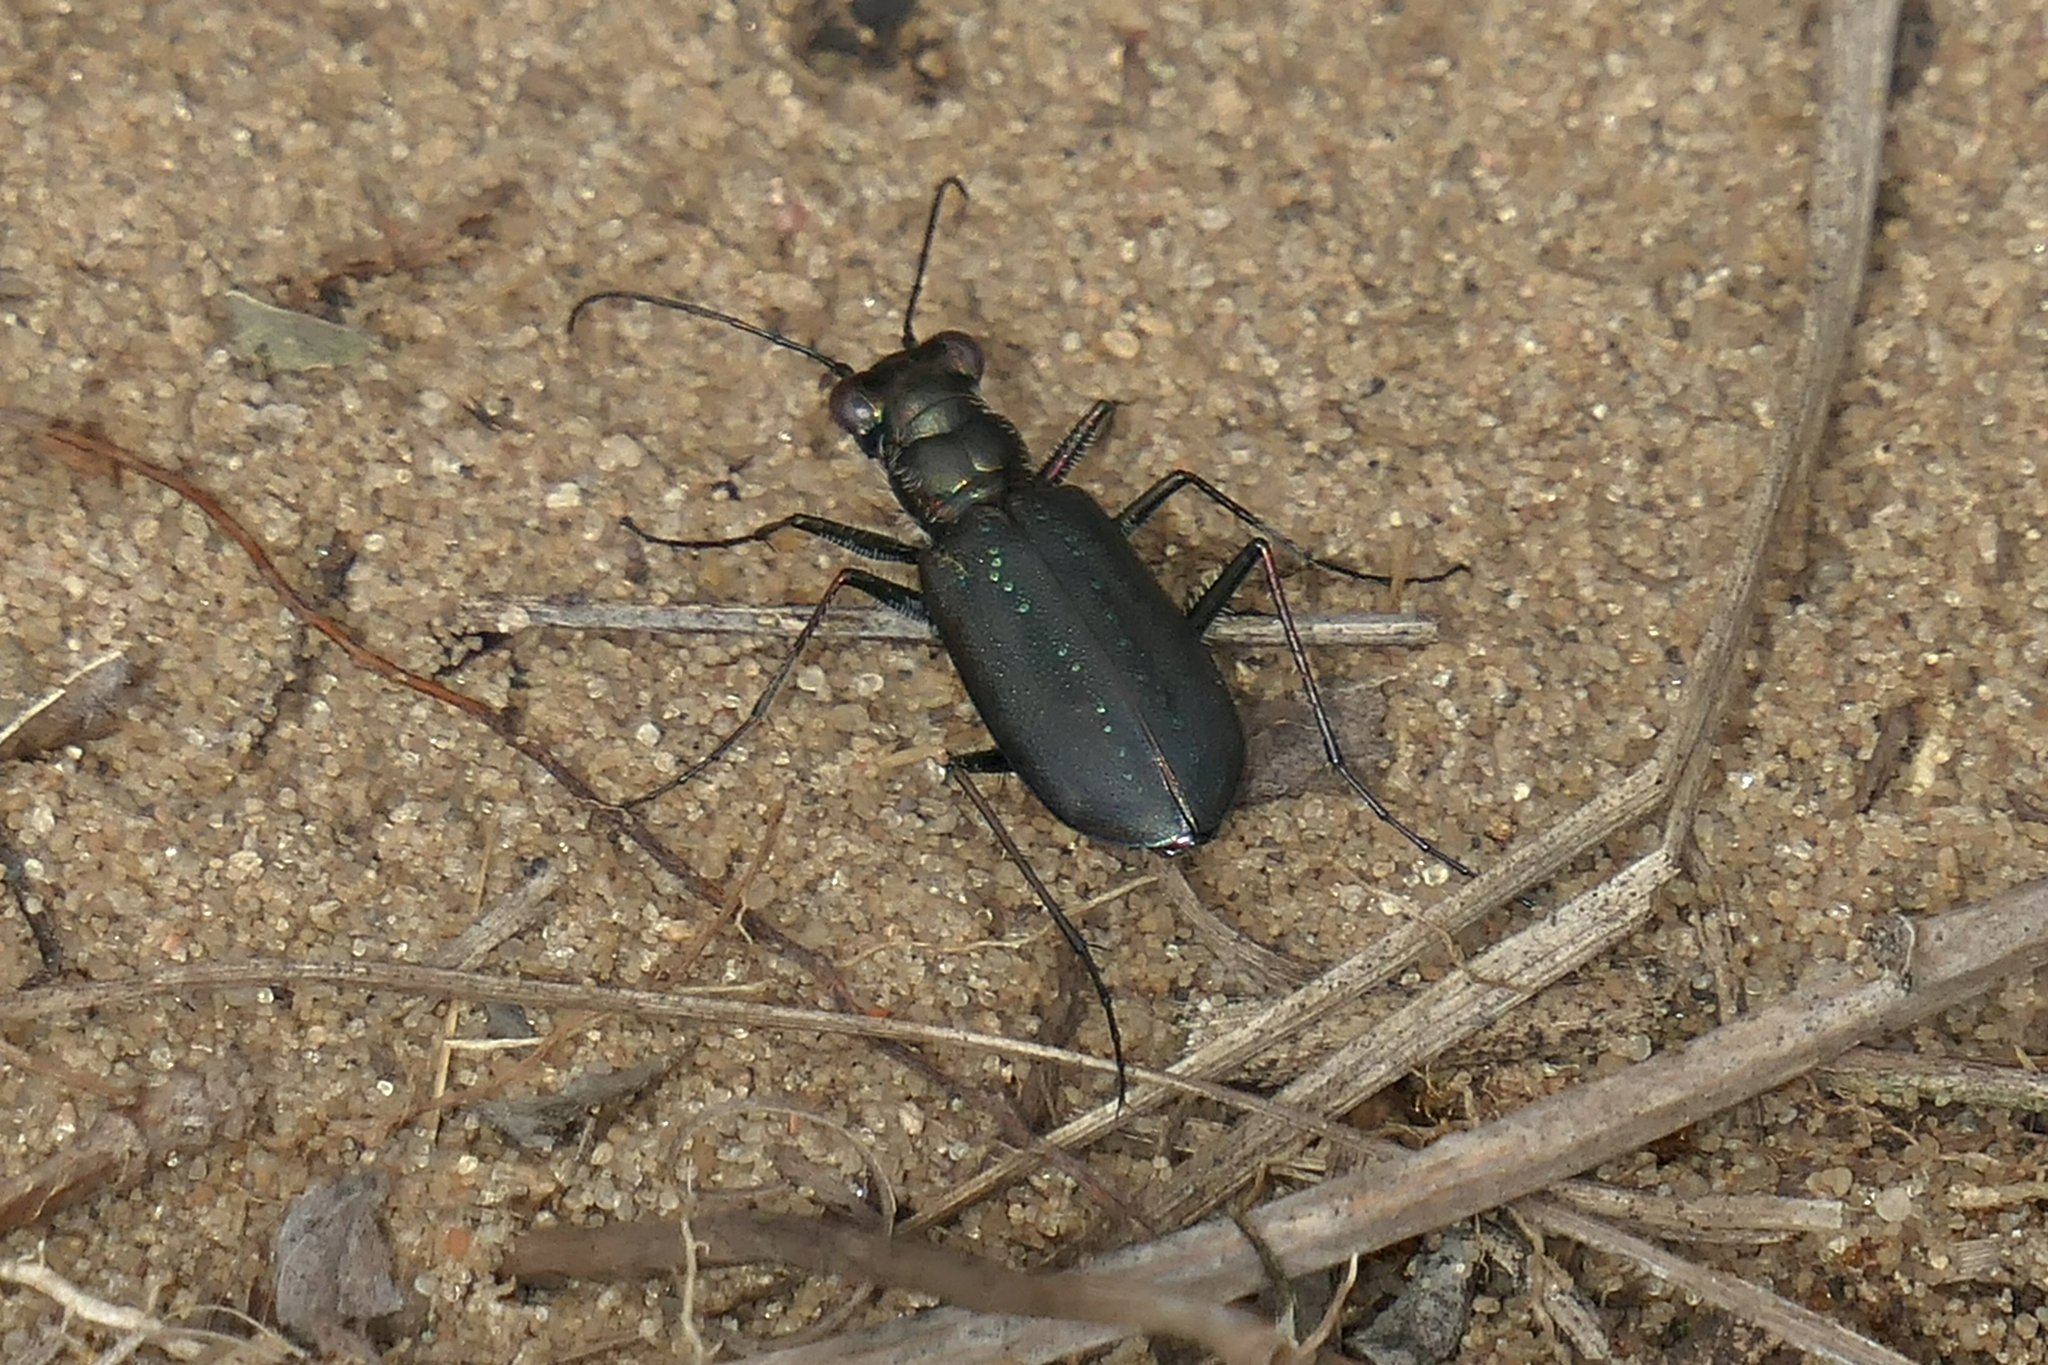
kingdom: Animalia
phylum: Arthropoda
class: Insecta
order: Coleoptera
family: Carabidae
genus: Cicindela
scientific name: Cicindela punctulata
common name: Punctured tiger beetle
